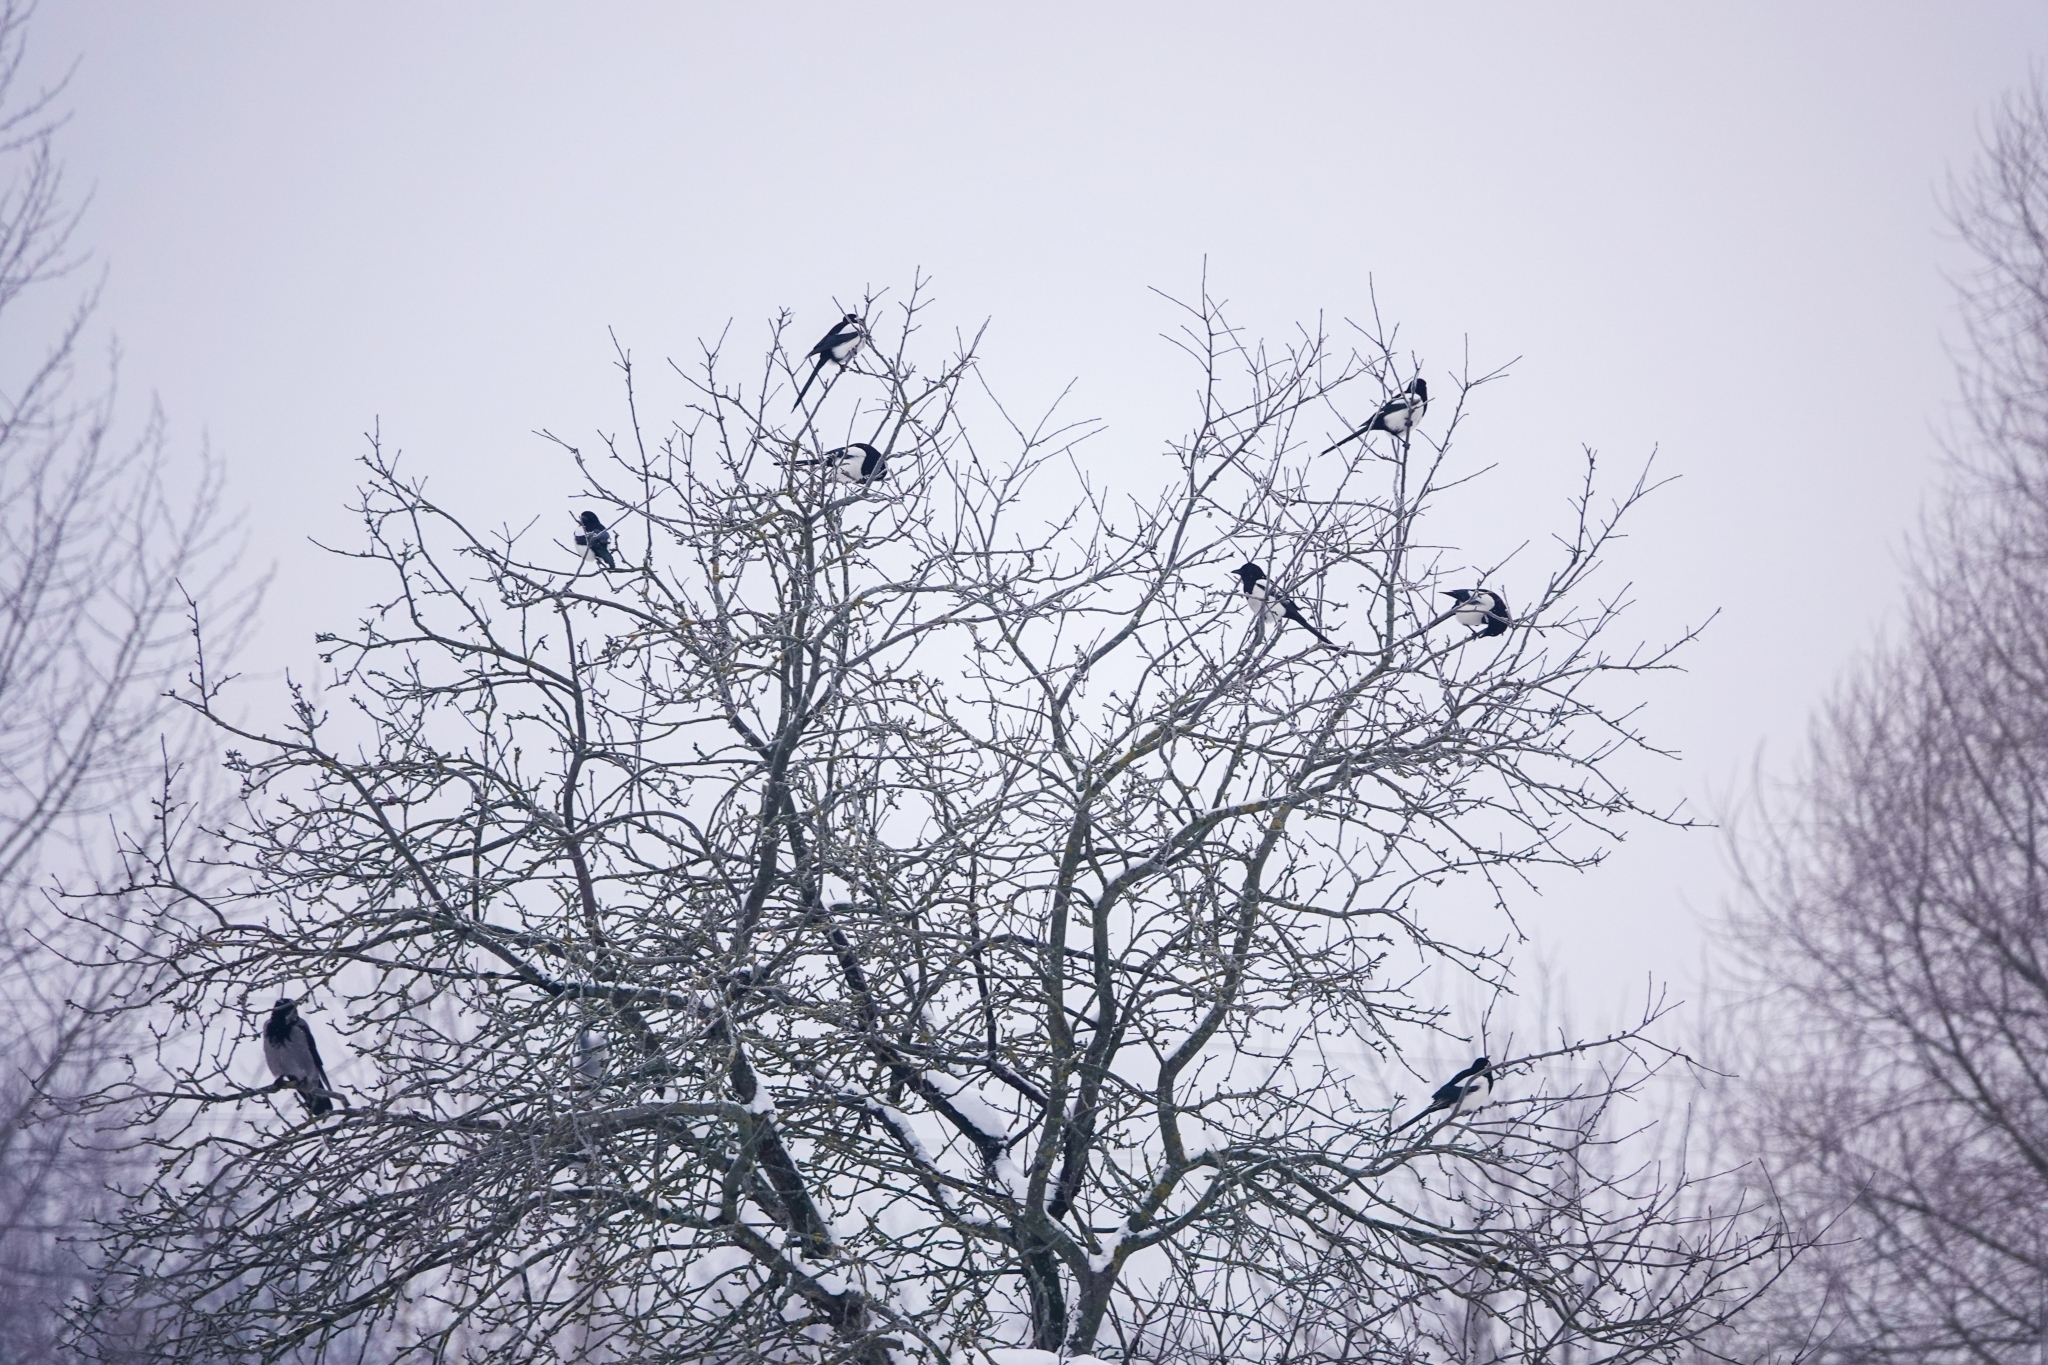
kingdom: Animalia
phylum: Chordata
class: Aves
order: Passeriformes
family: Corvidae
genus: Pica
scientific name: Pica pica
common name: Eurasian magpie
